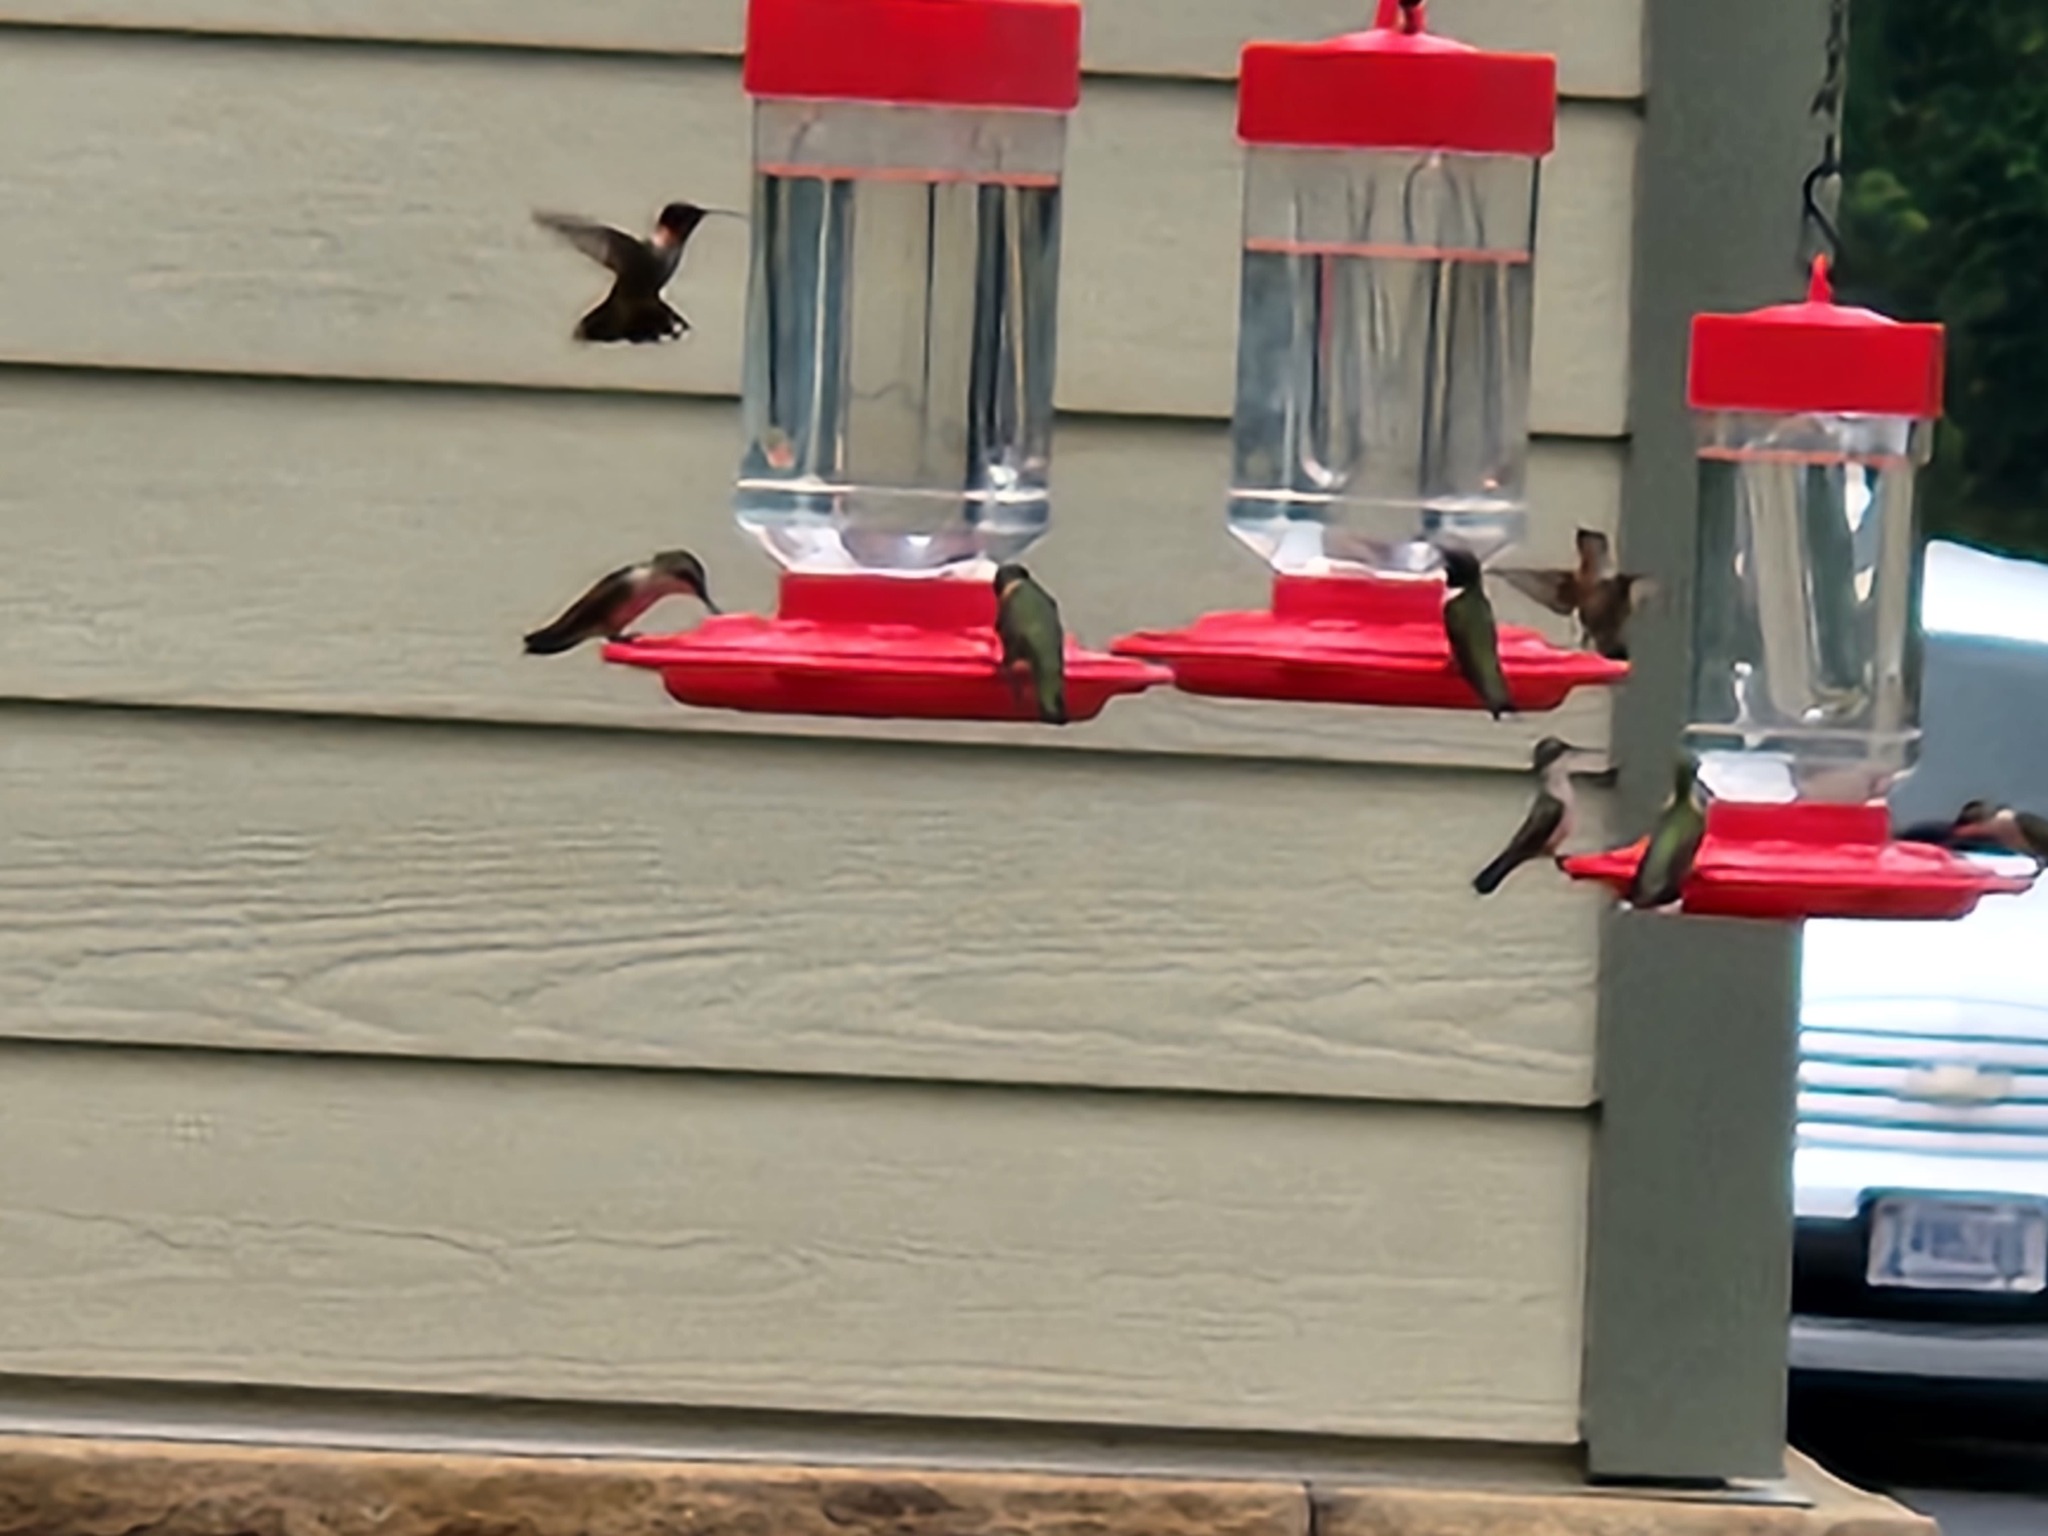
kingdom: Animalia
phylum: Chordata
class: Aves
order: Apodiformes
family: Trochilidae
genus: Archilochus
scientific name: Archilochus colubris
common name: Ruby-throated hummingbird
